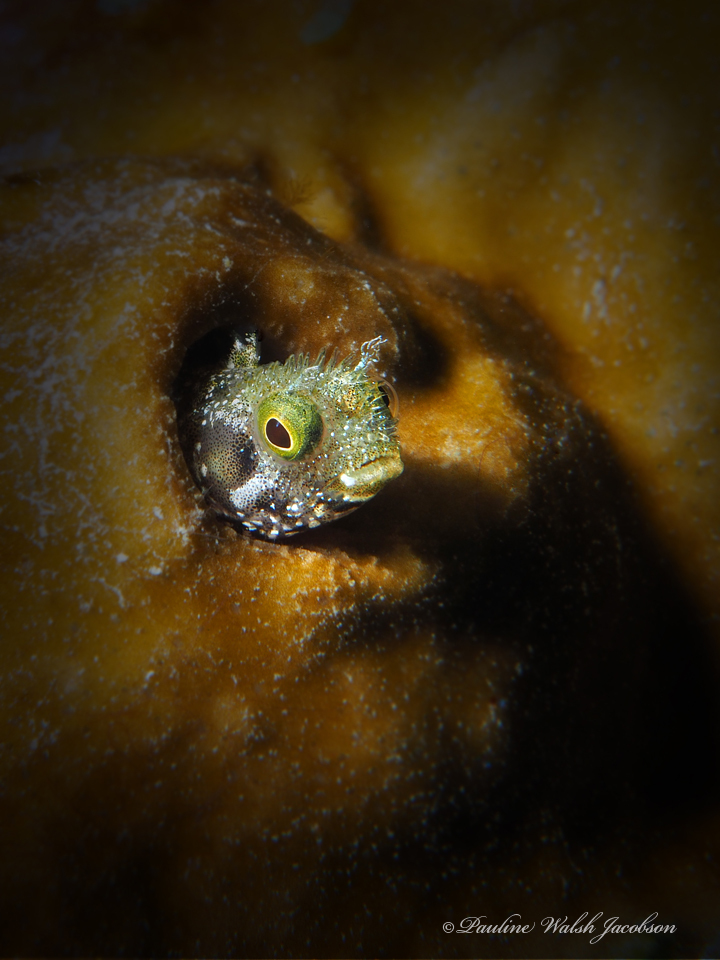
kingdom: Animalia
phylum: Chordata
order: Perciformes
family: Chaenopsidae
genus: Acanthemblemaria
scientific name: Acanthemblemaria spinosa
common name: Spinyhead blenny
